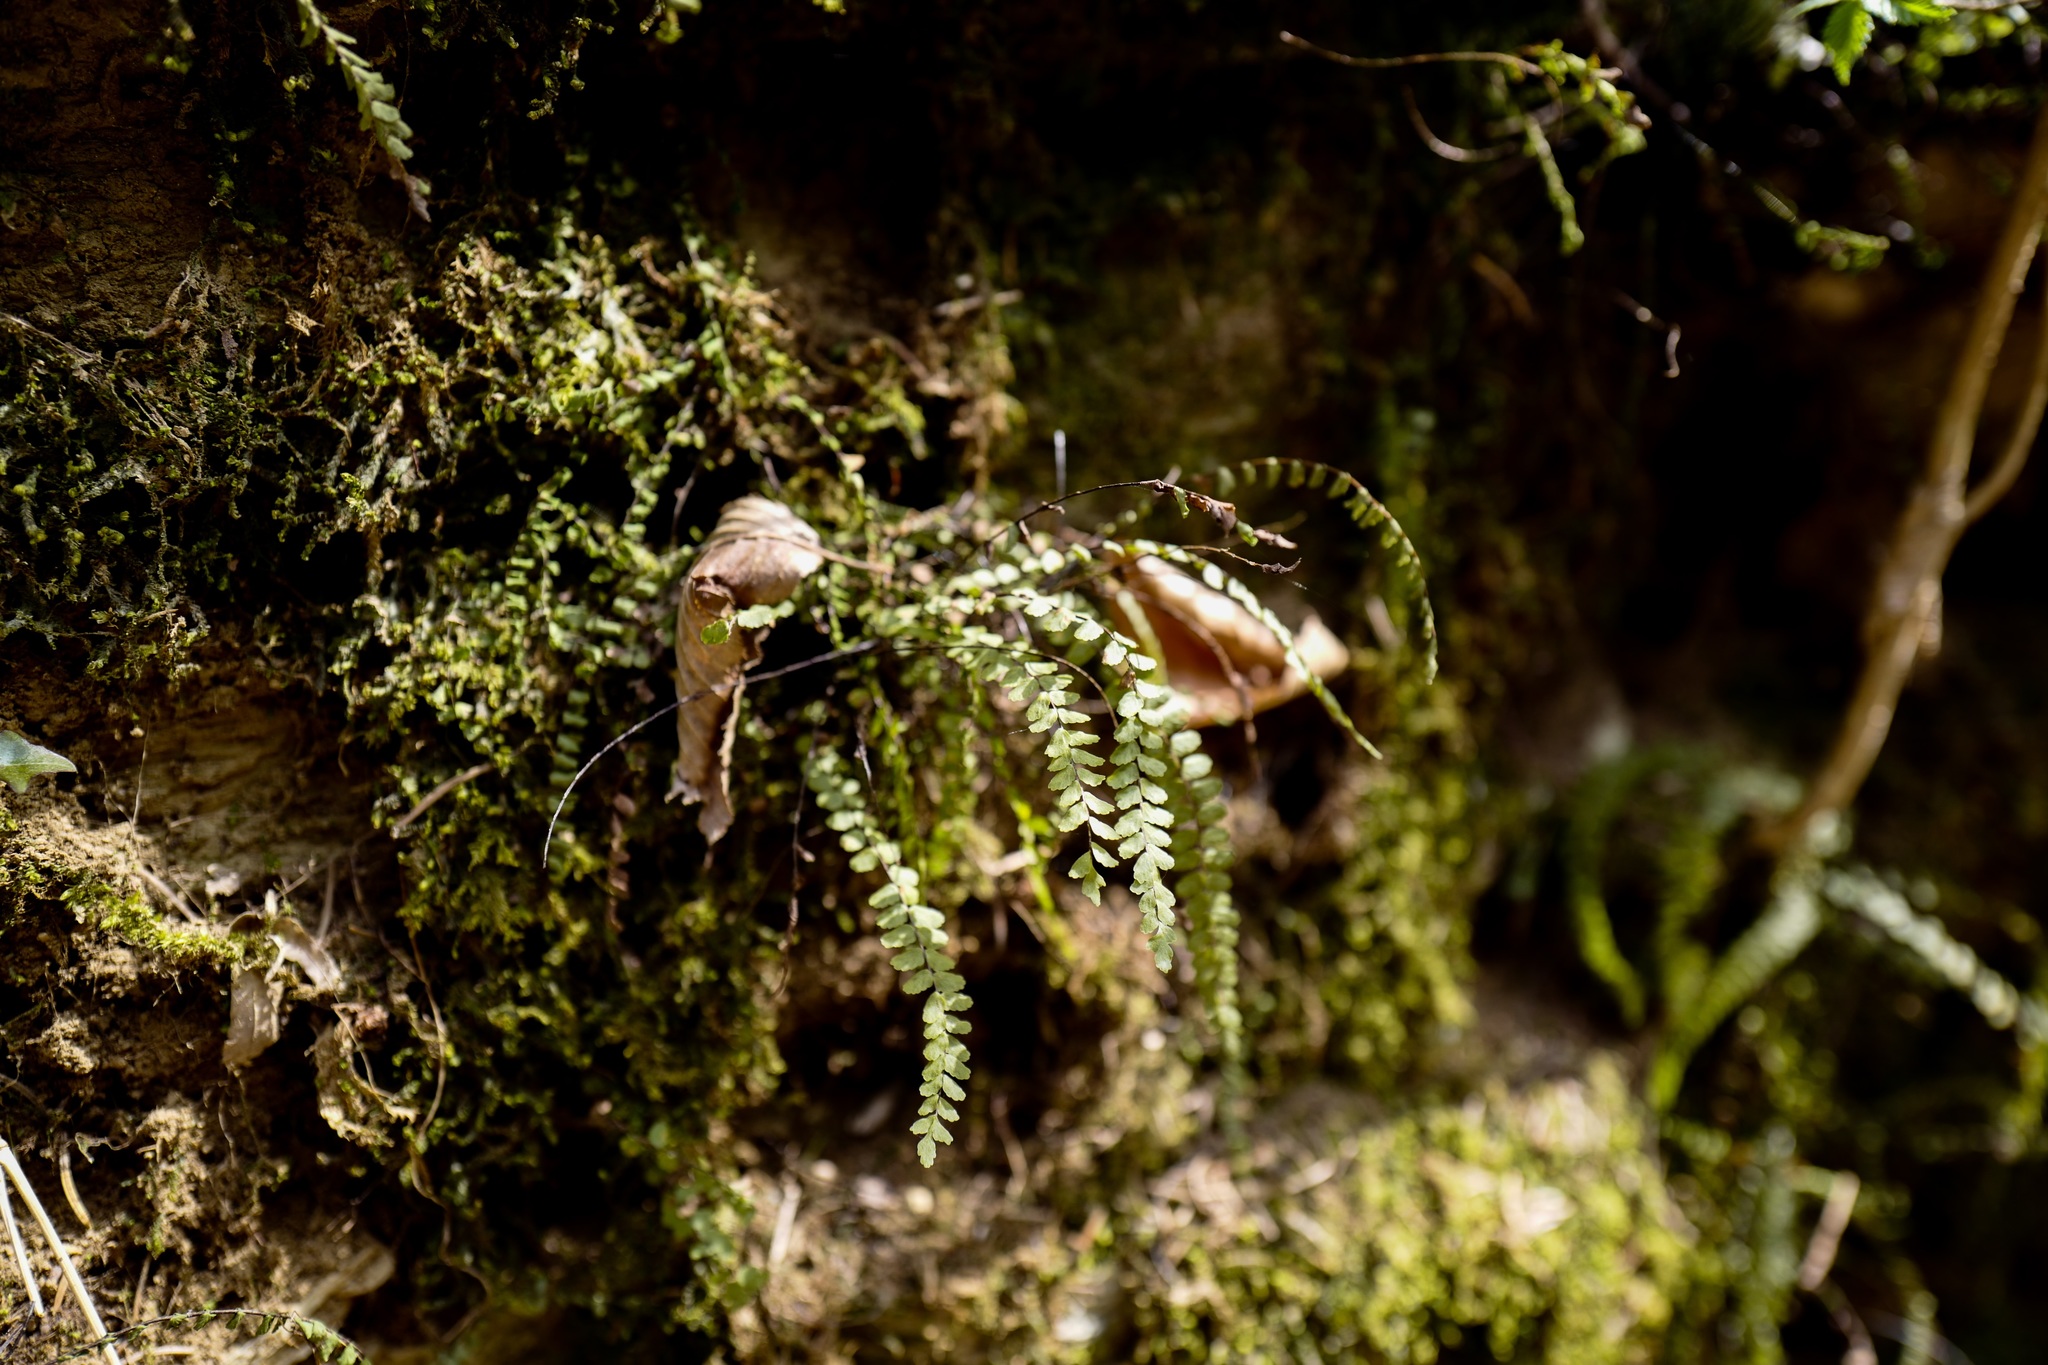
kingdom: Plantae
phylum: Tracheophyta
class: Polypodiopsida
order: Polypodiales
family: Aspleniaceae
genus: Asplenium
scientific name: Asplenium trichomanes
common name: Maidenhair spleenwort
